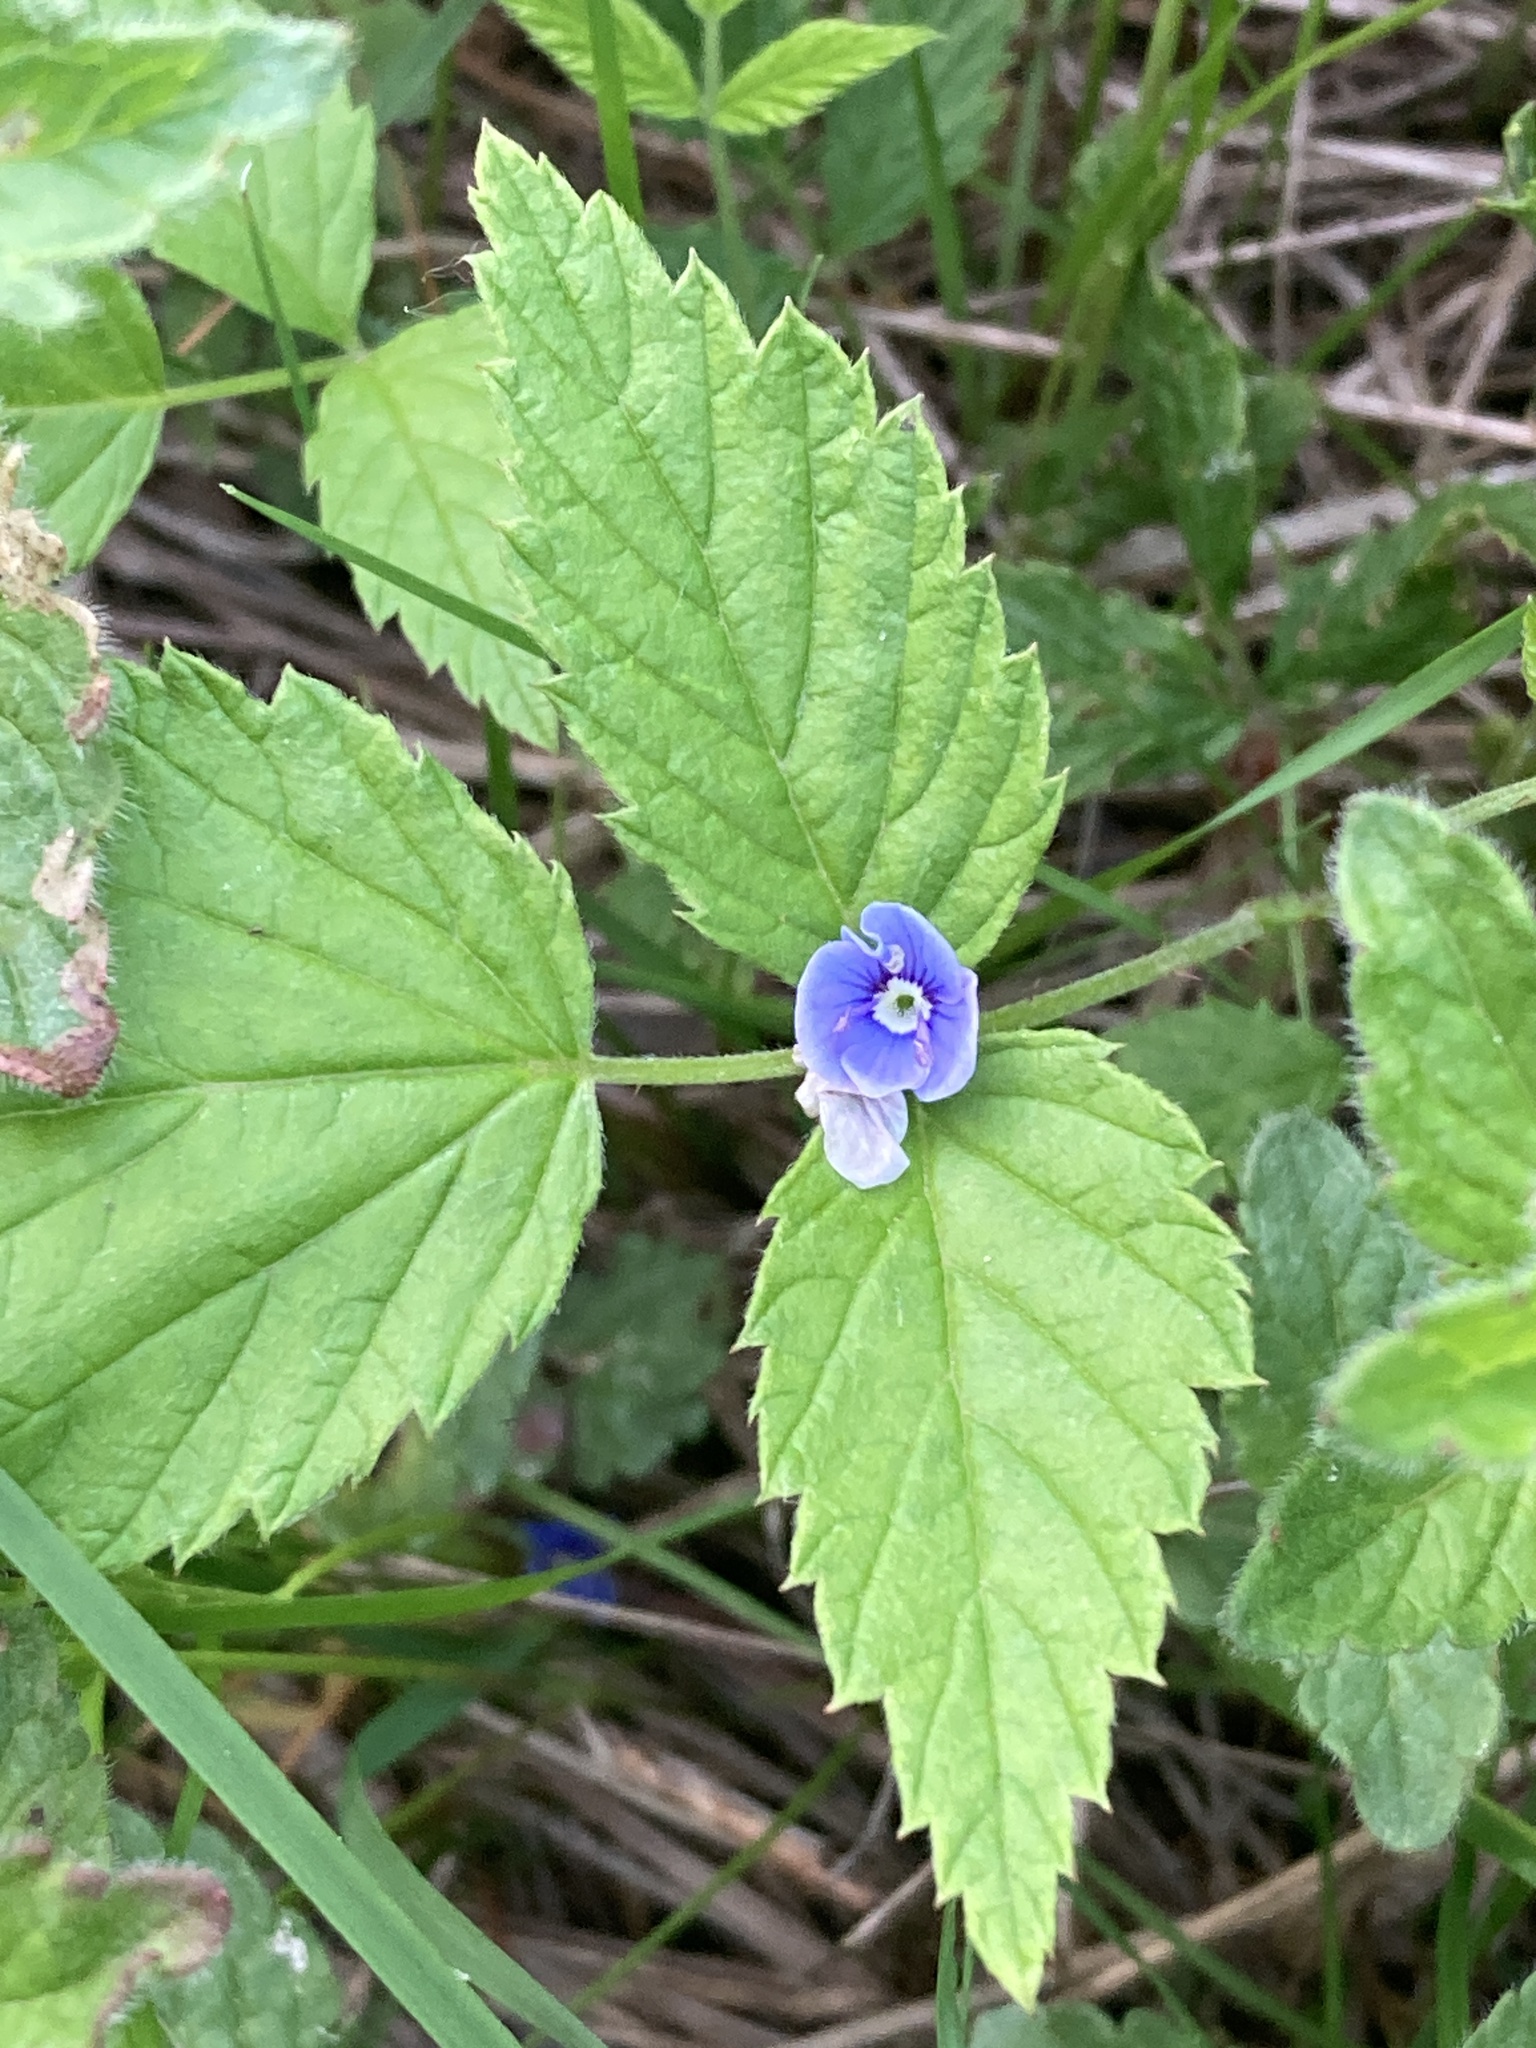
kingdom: Plantae
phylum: Tracheophyta
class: Magnoliopsida
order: Lamiales
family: Plantaginaceae
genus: Veronica
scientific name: Veronica chamaedrys
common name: Germander speedwell
